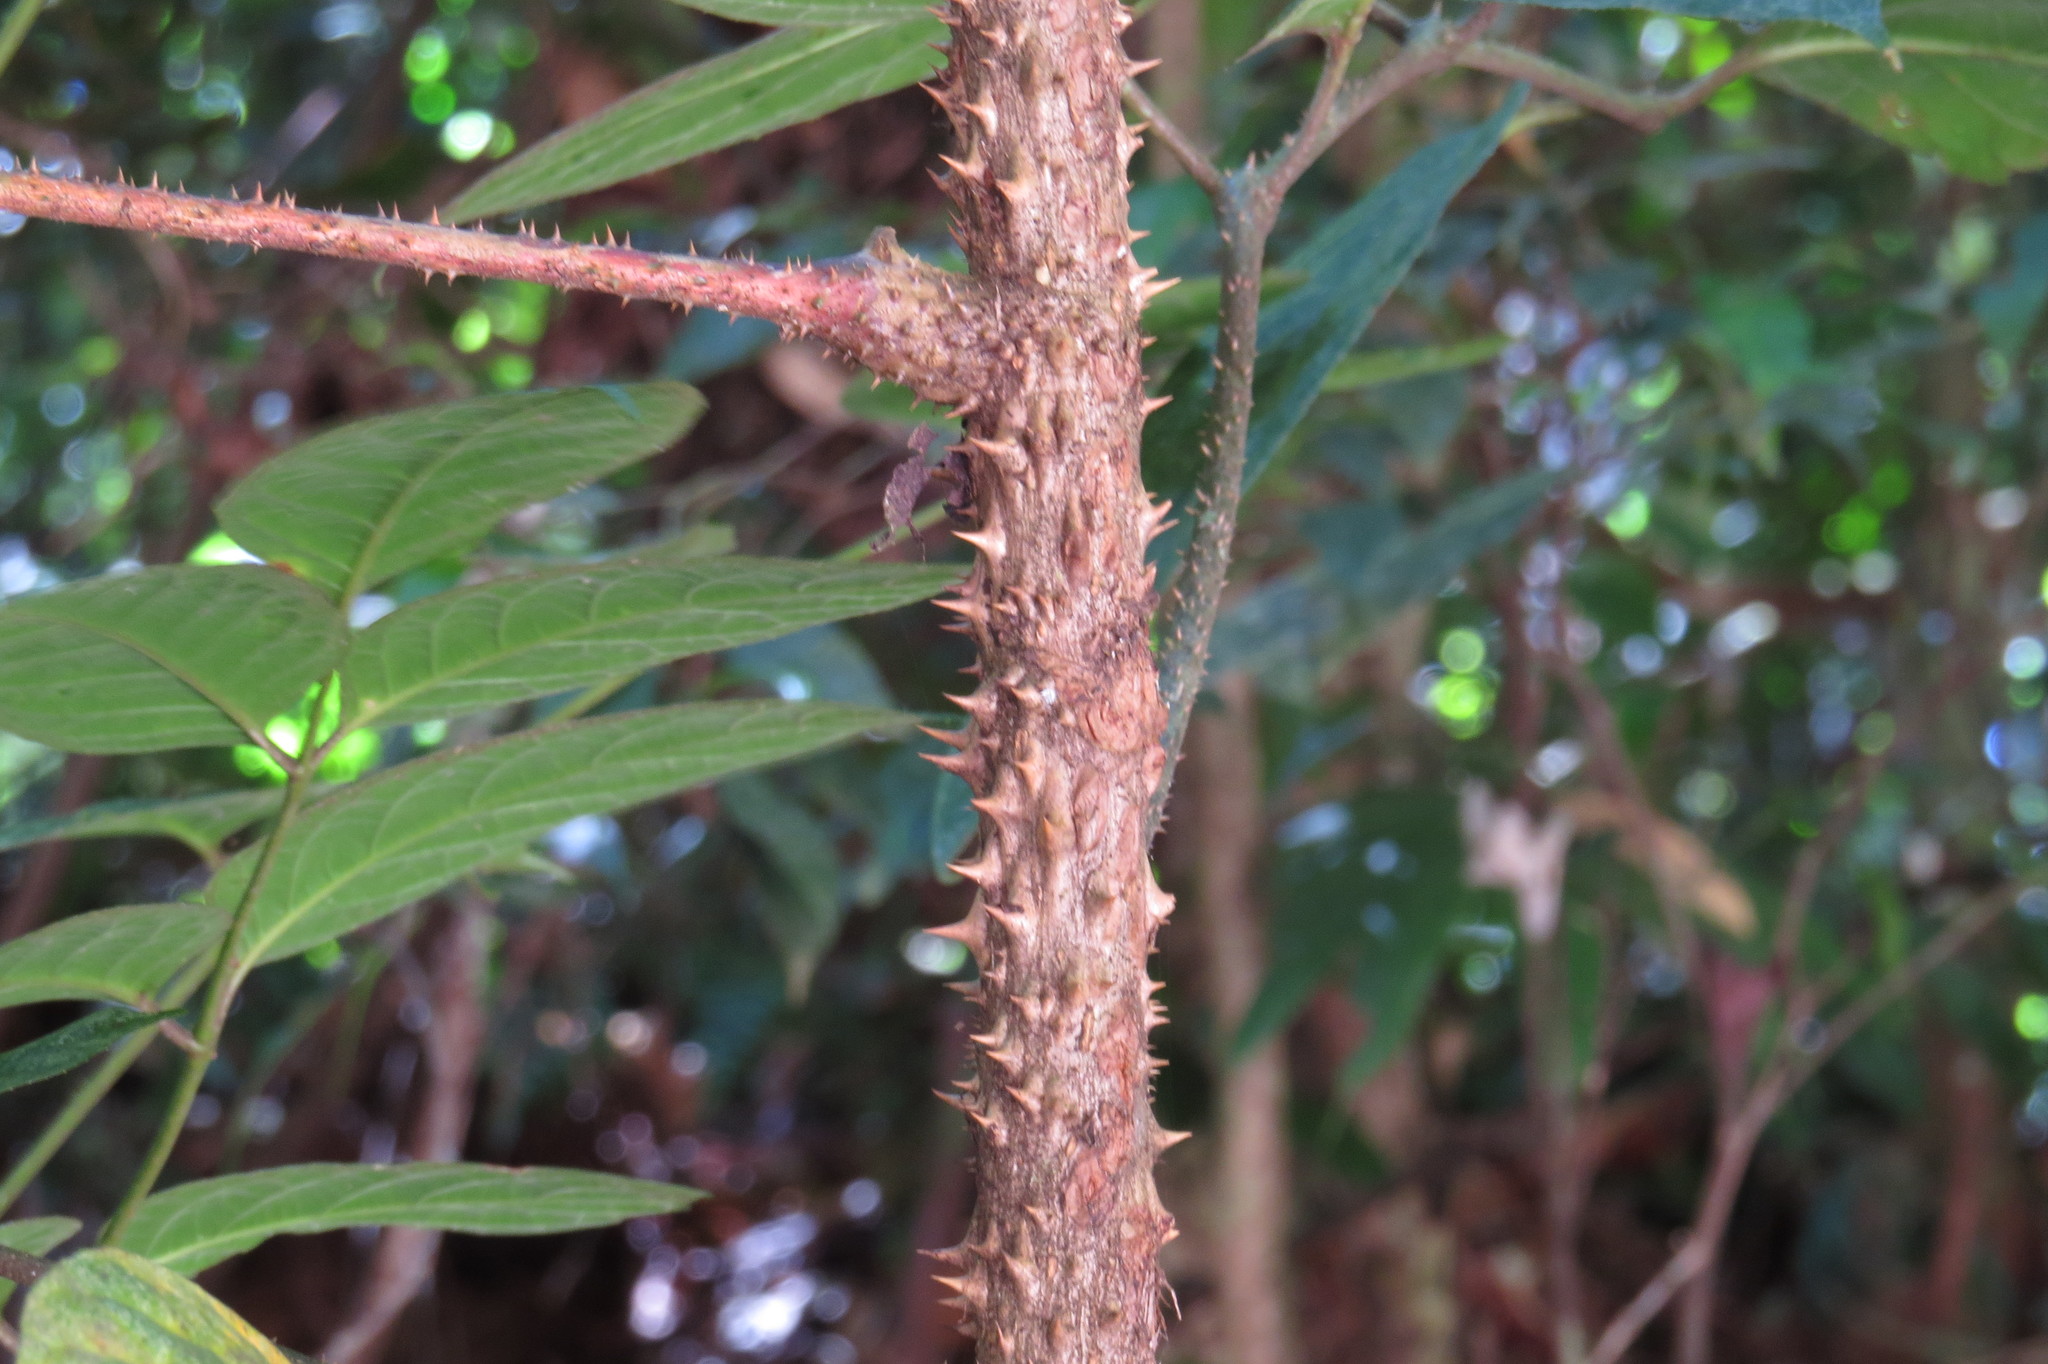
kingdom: Plantae
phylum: Tracheophyta
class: Magnoliopsida
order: Apiales
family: Araliaceae
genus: Polyscias
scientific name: Polyscias mollis
